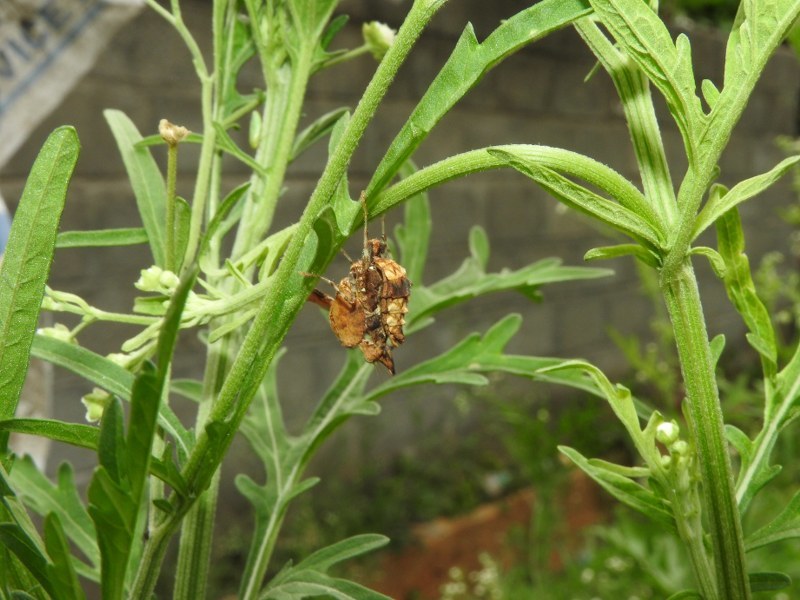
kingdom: Animalia
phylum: Arthropoda
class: Insecta
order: Mantodea
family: Hymenopodidae
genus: Hestiasula
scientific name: Hestiasula brunneriana
